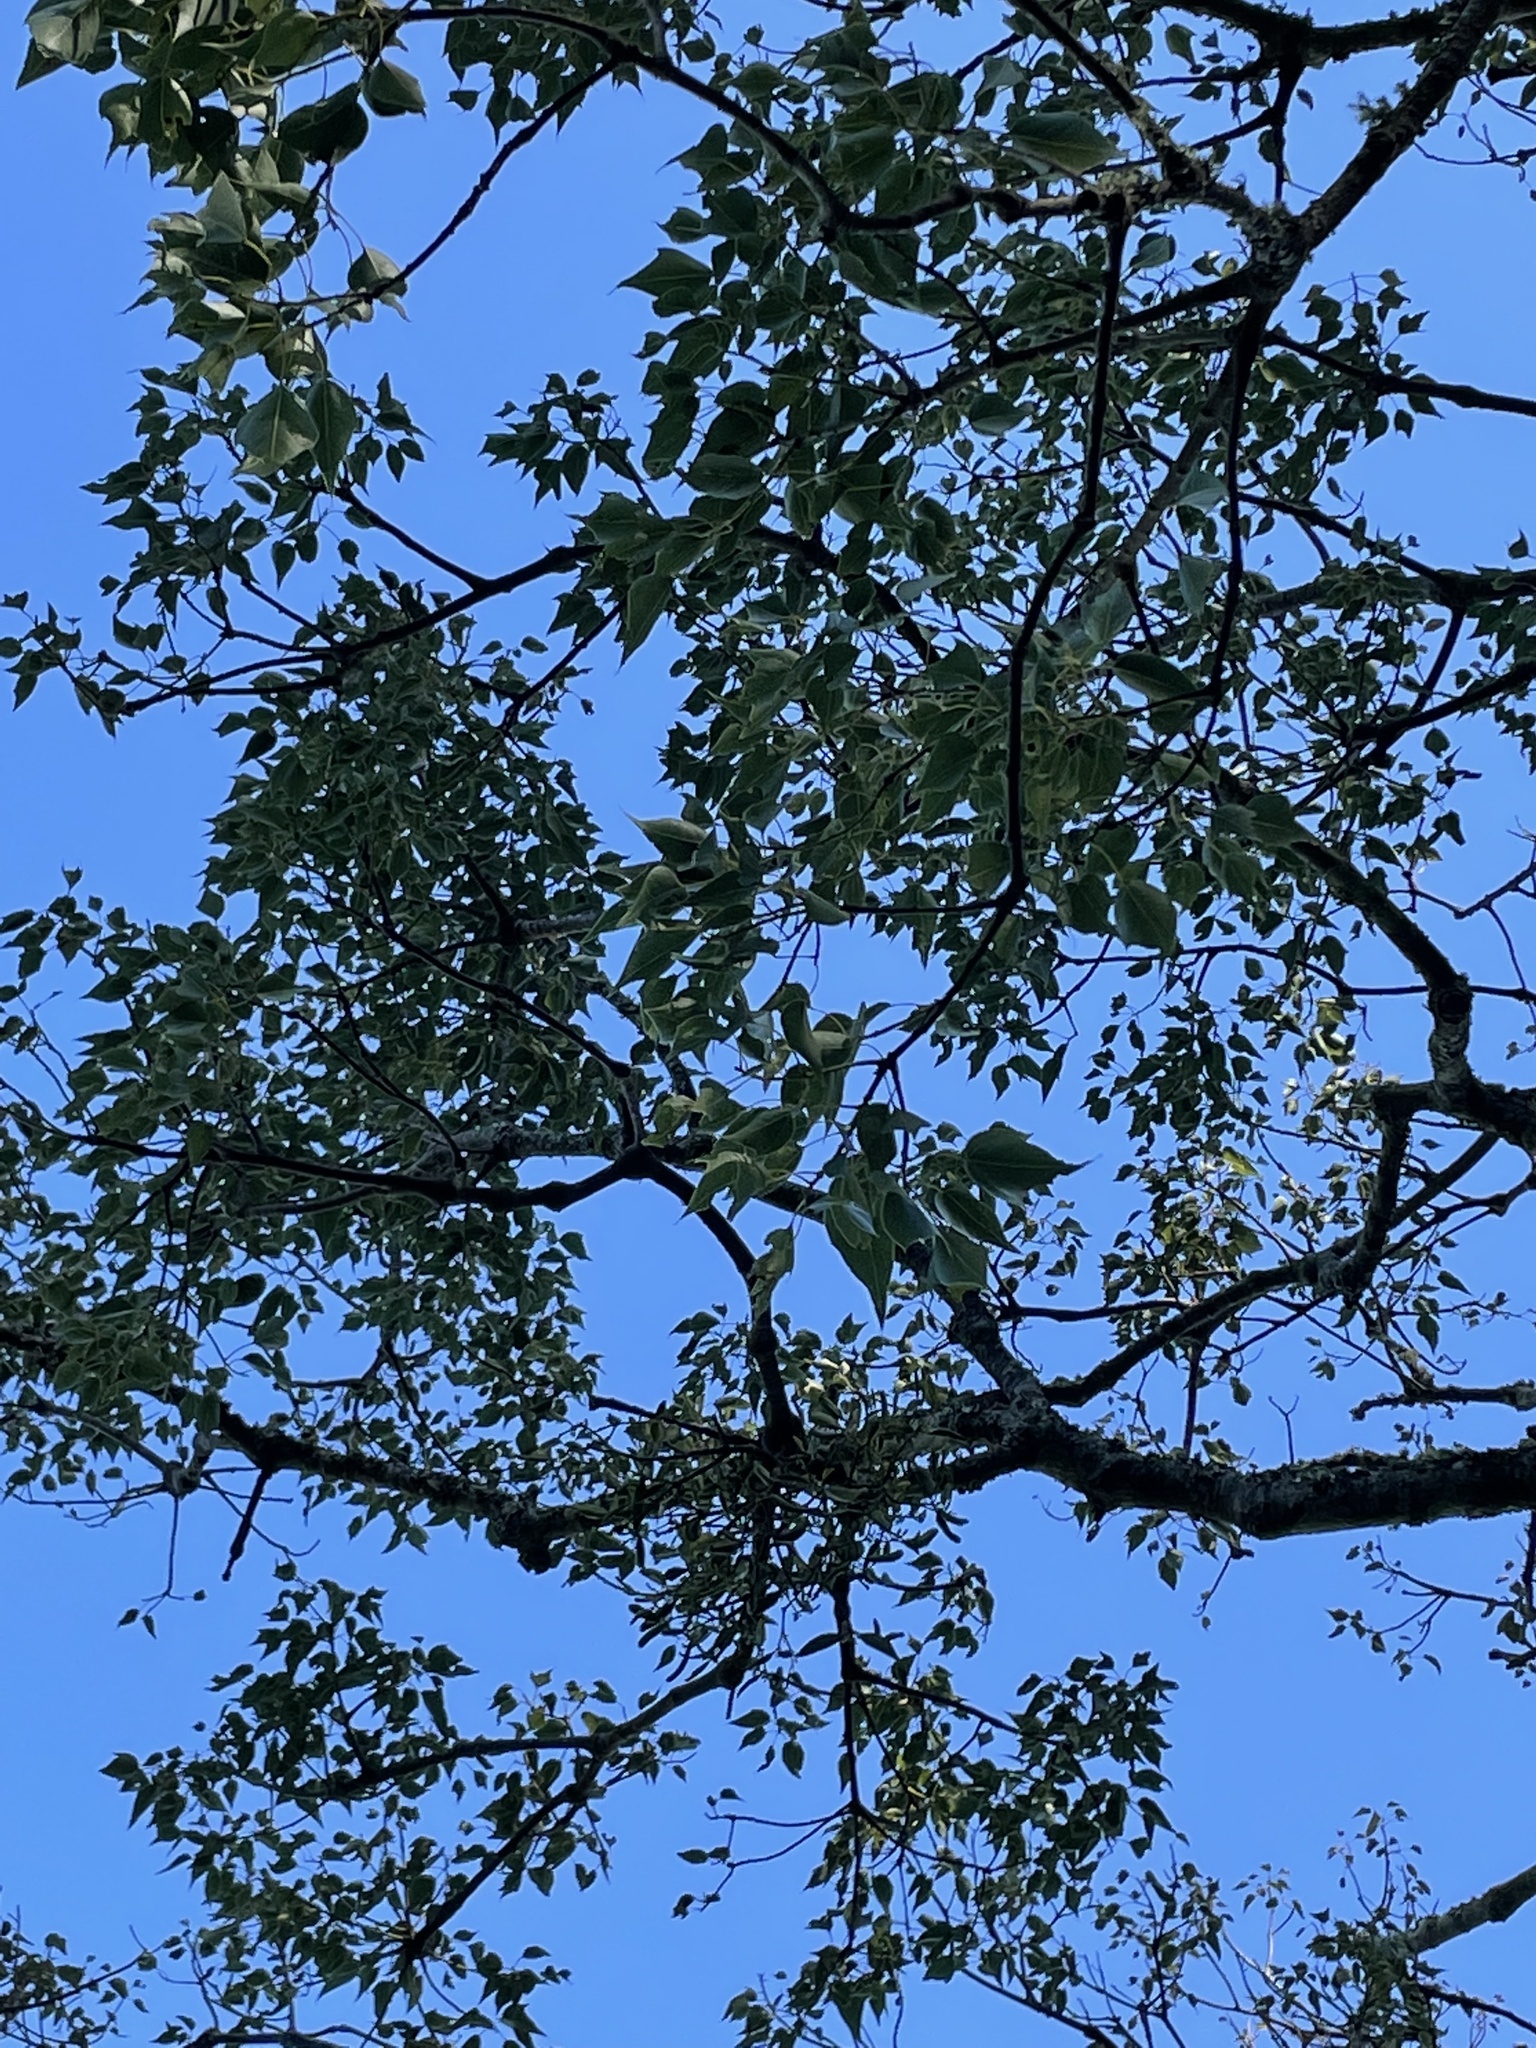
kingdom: Plantae
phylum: Tracheophyta
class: Magnoliopsida
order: Malvales
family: Malvaceae
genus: Brachychiton
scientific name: Brachychiton populneus
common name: Kurrajong
